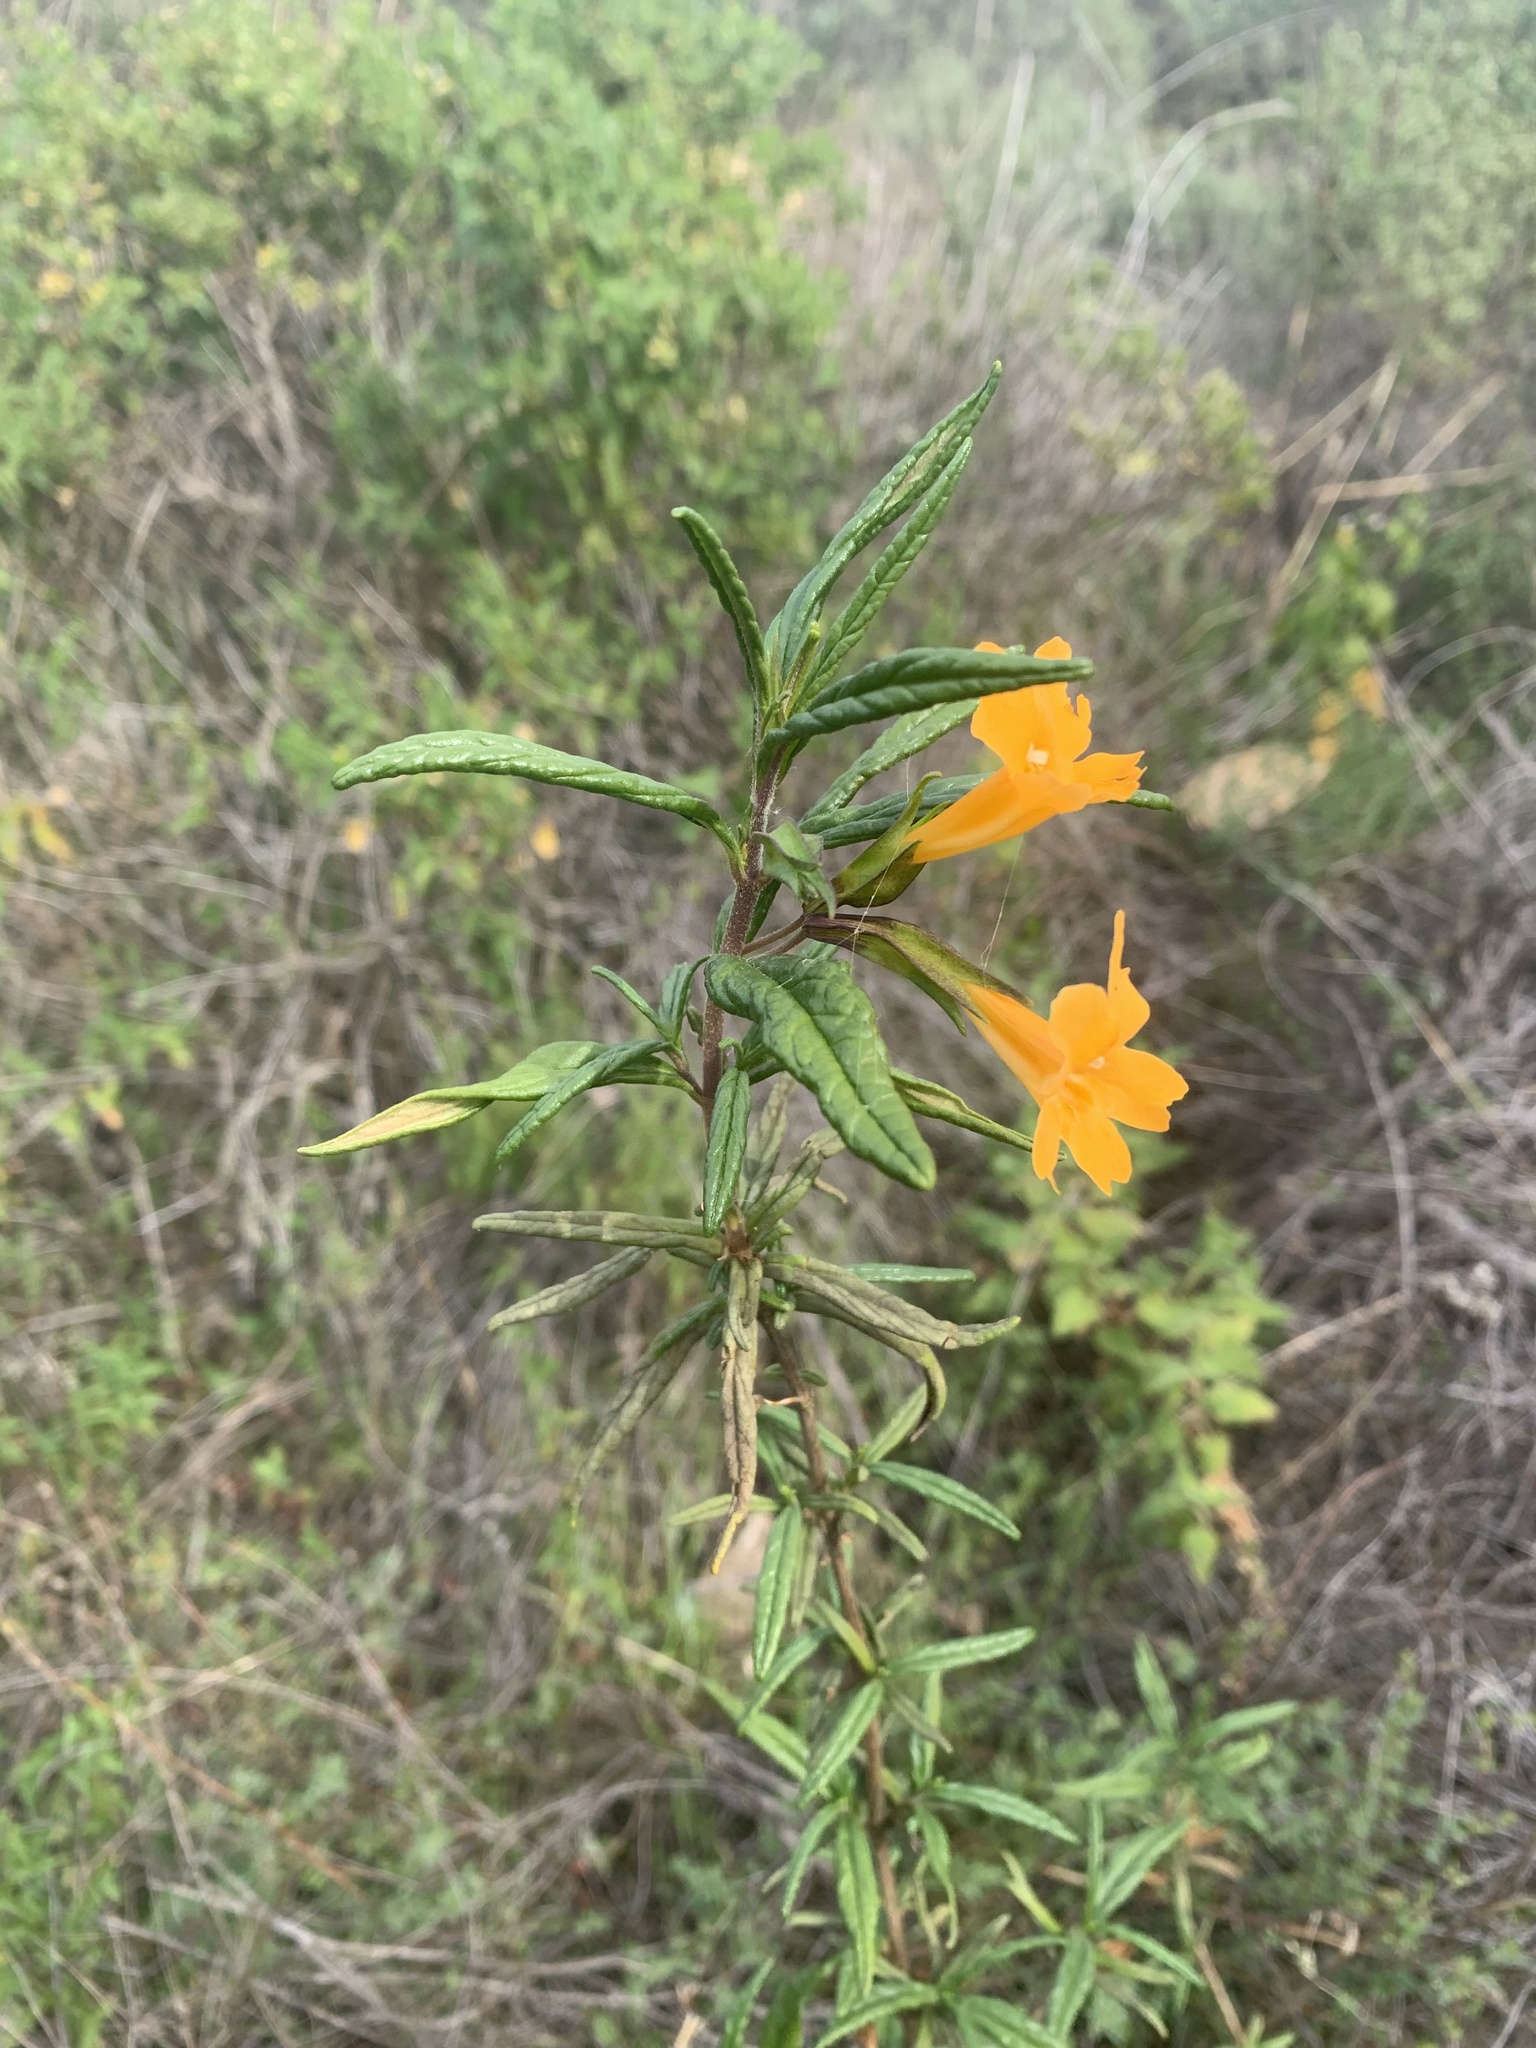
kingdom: Plantae
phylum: Tracheophyta
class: Magnoliopsida
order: Lamiales
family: Phrymaceae
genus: Diplacus
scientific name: Diplacus aurantiacus
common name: Bush monkey-flower
